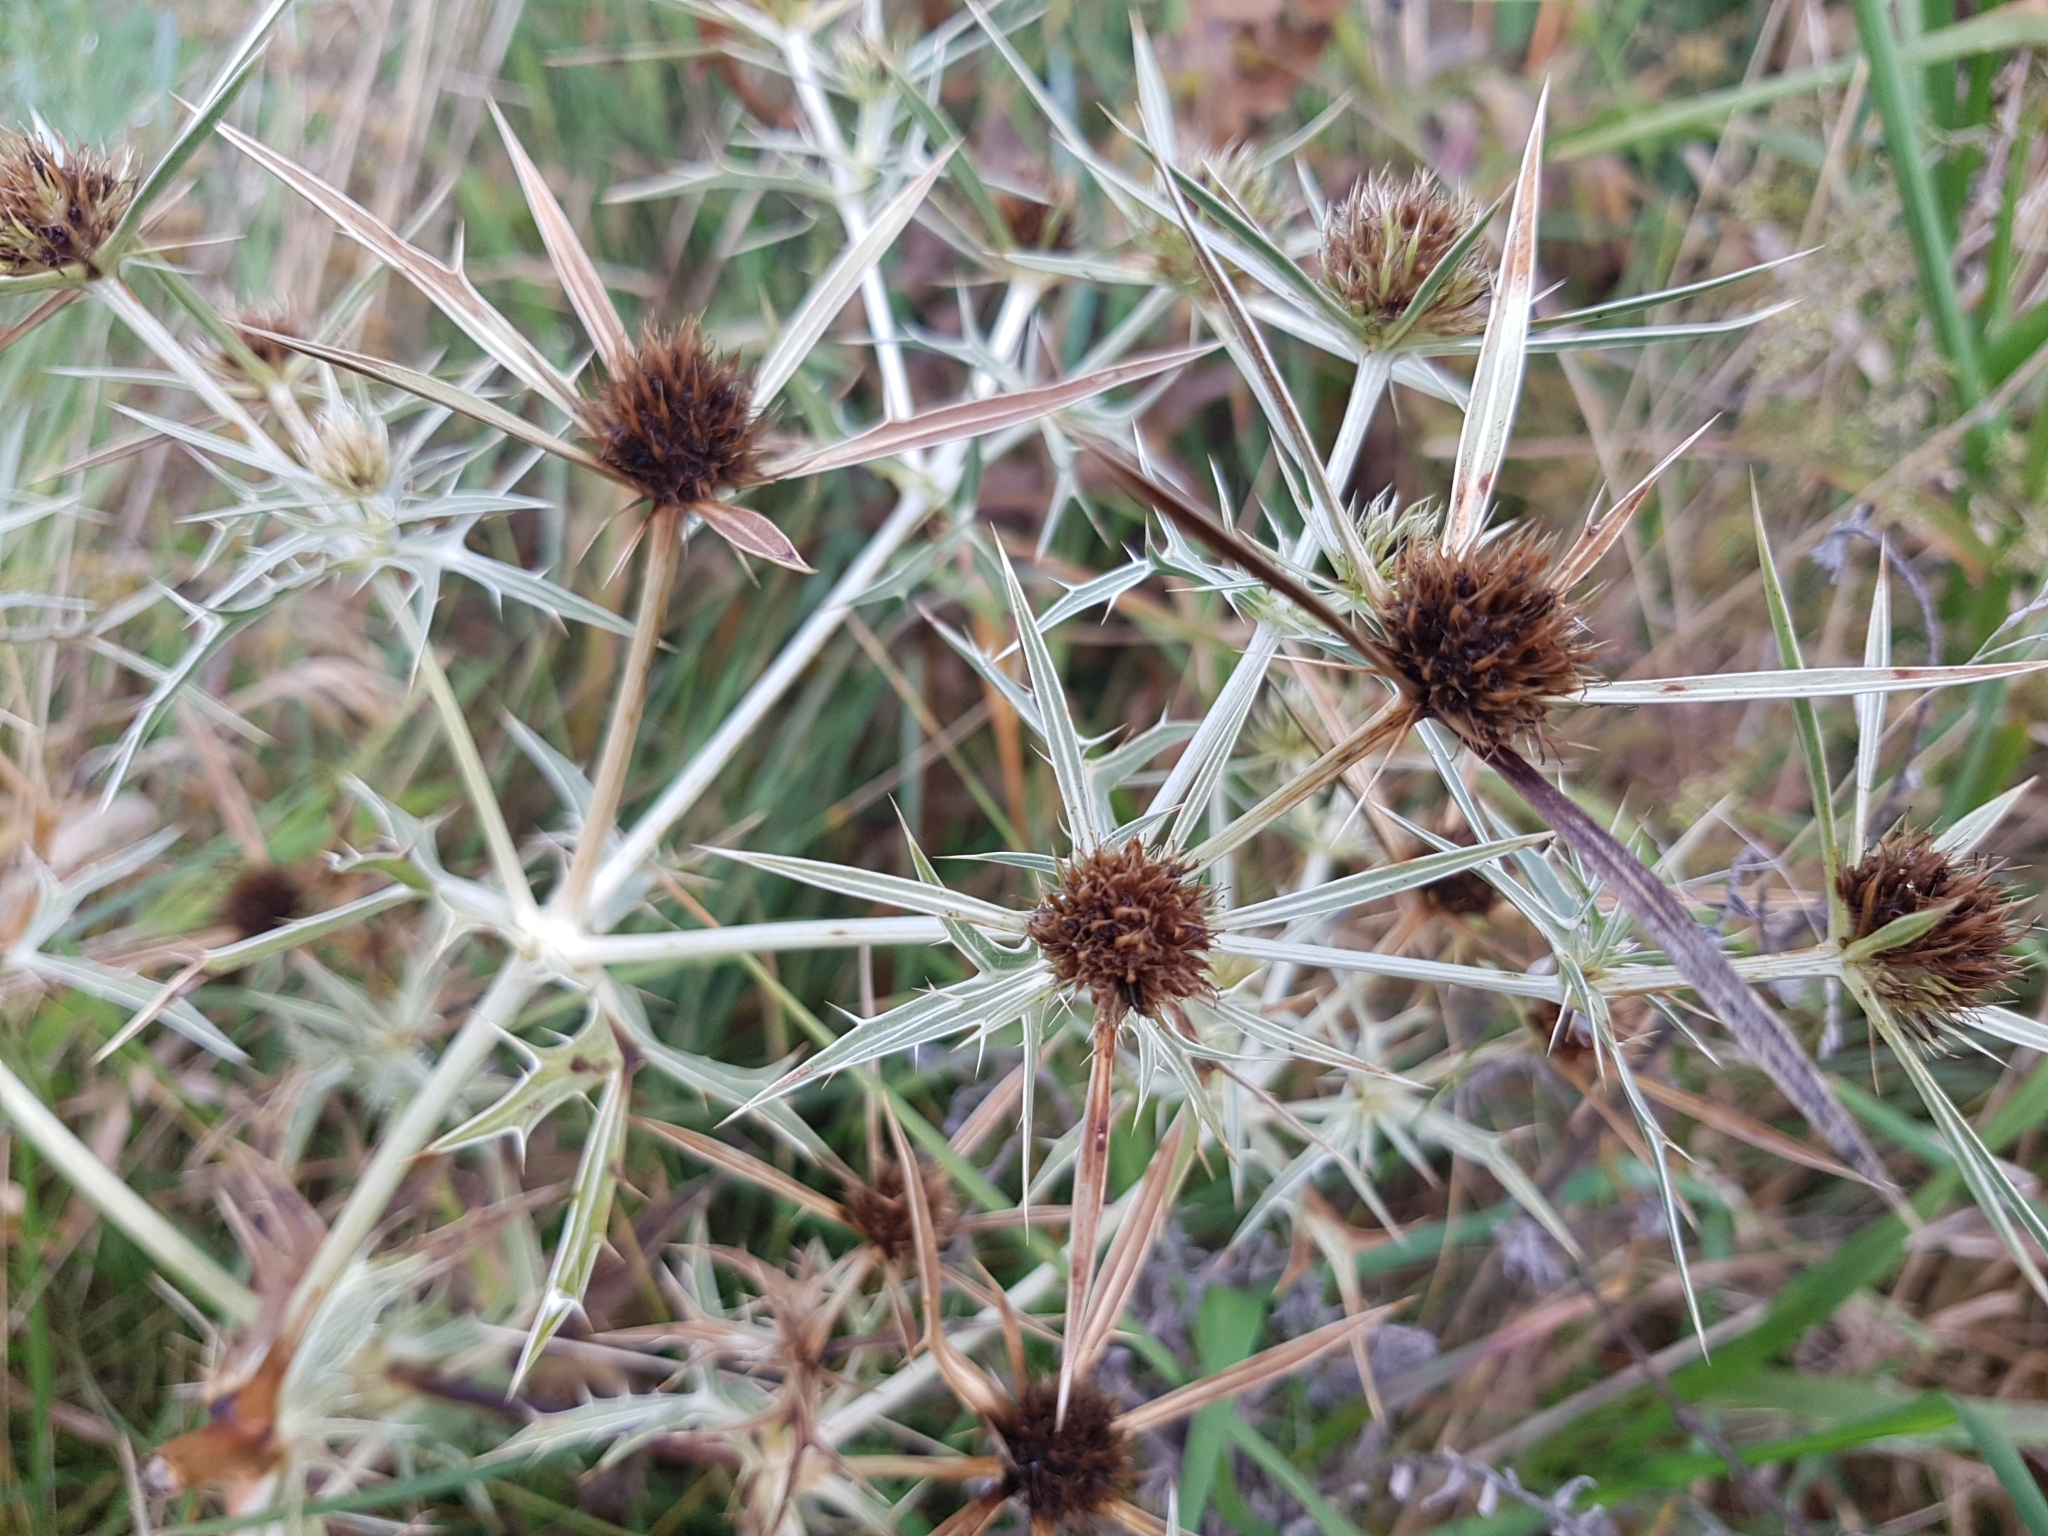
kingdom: Plantae
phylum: Tracheophyta
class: Magnoliopsida
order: Apiales
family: Apiaceae
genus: Eryngium
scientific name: Eryngium campestre
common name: Field eryngo
